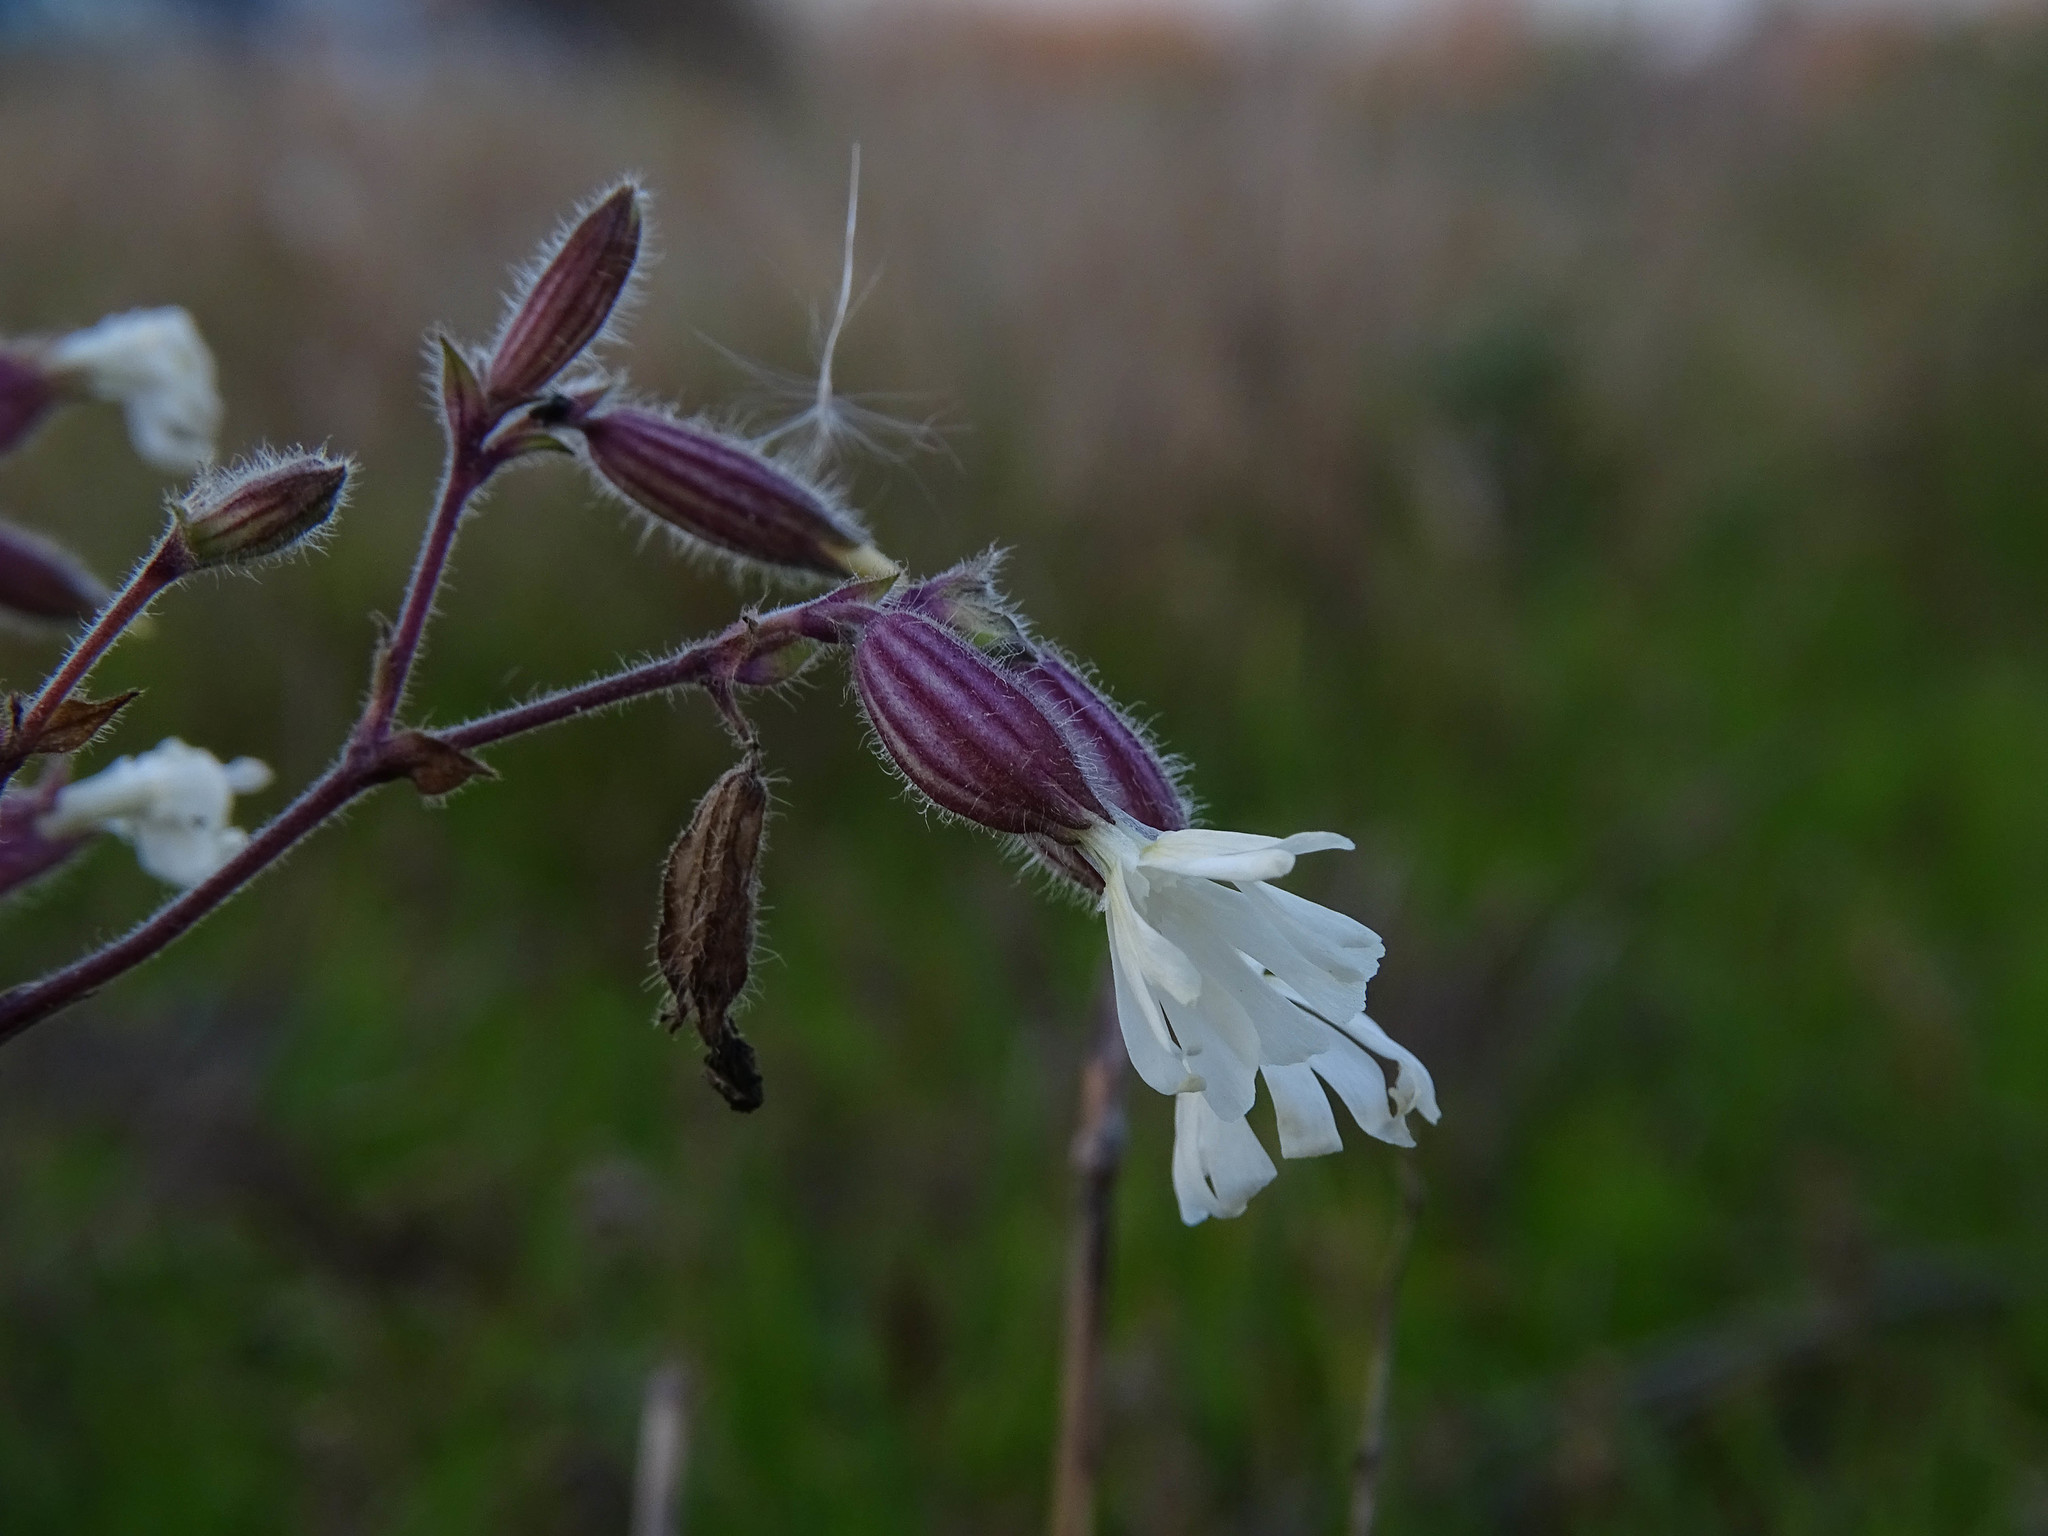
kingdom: Plantae
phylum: Tracheophyta
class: Magnoliopsida
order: Caryophyllales
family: Caryophyllaceae
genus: Silene
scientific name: Silene latifolia
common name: White campion
